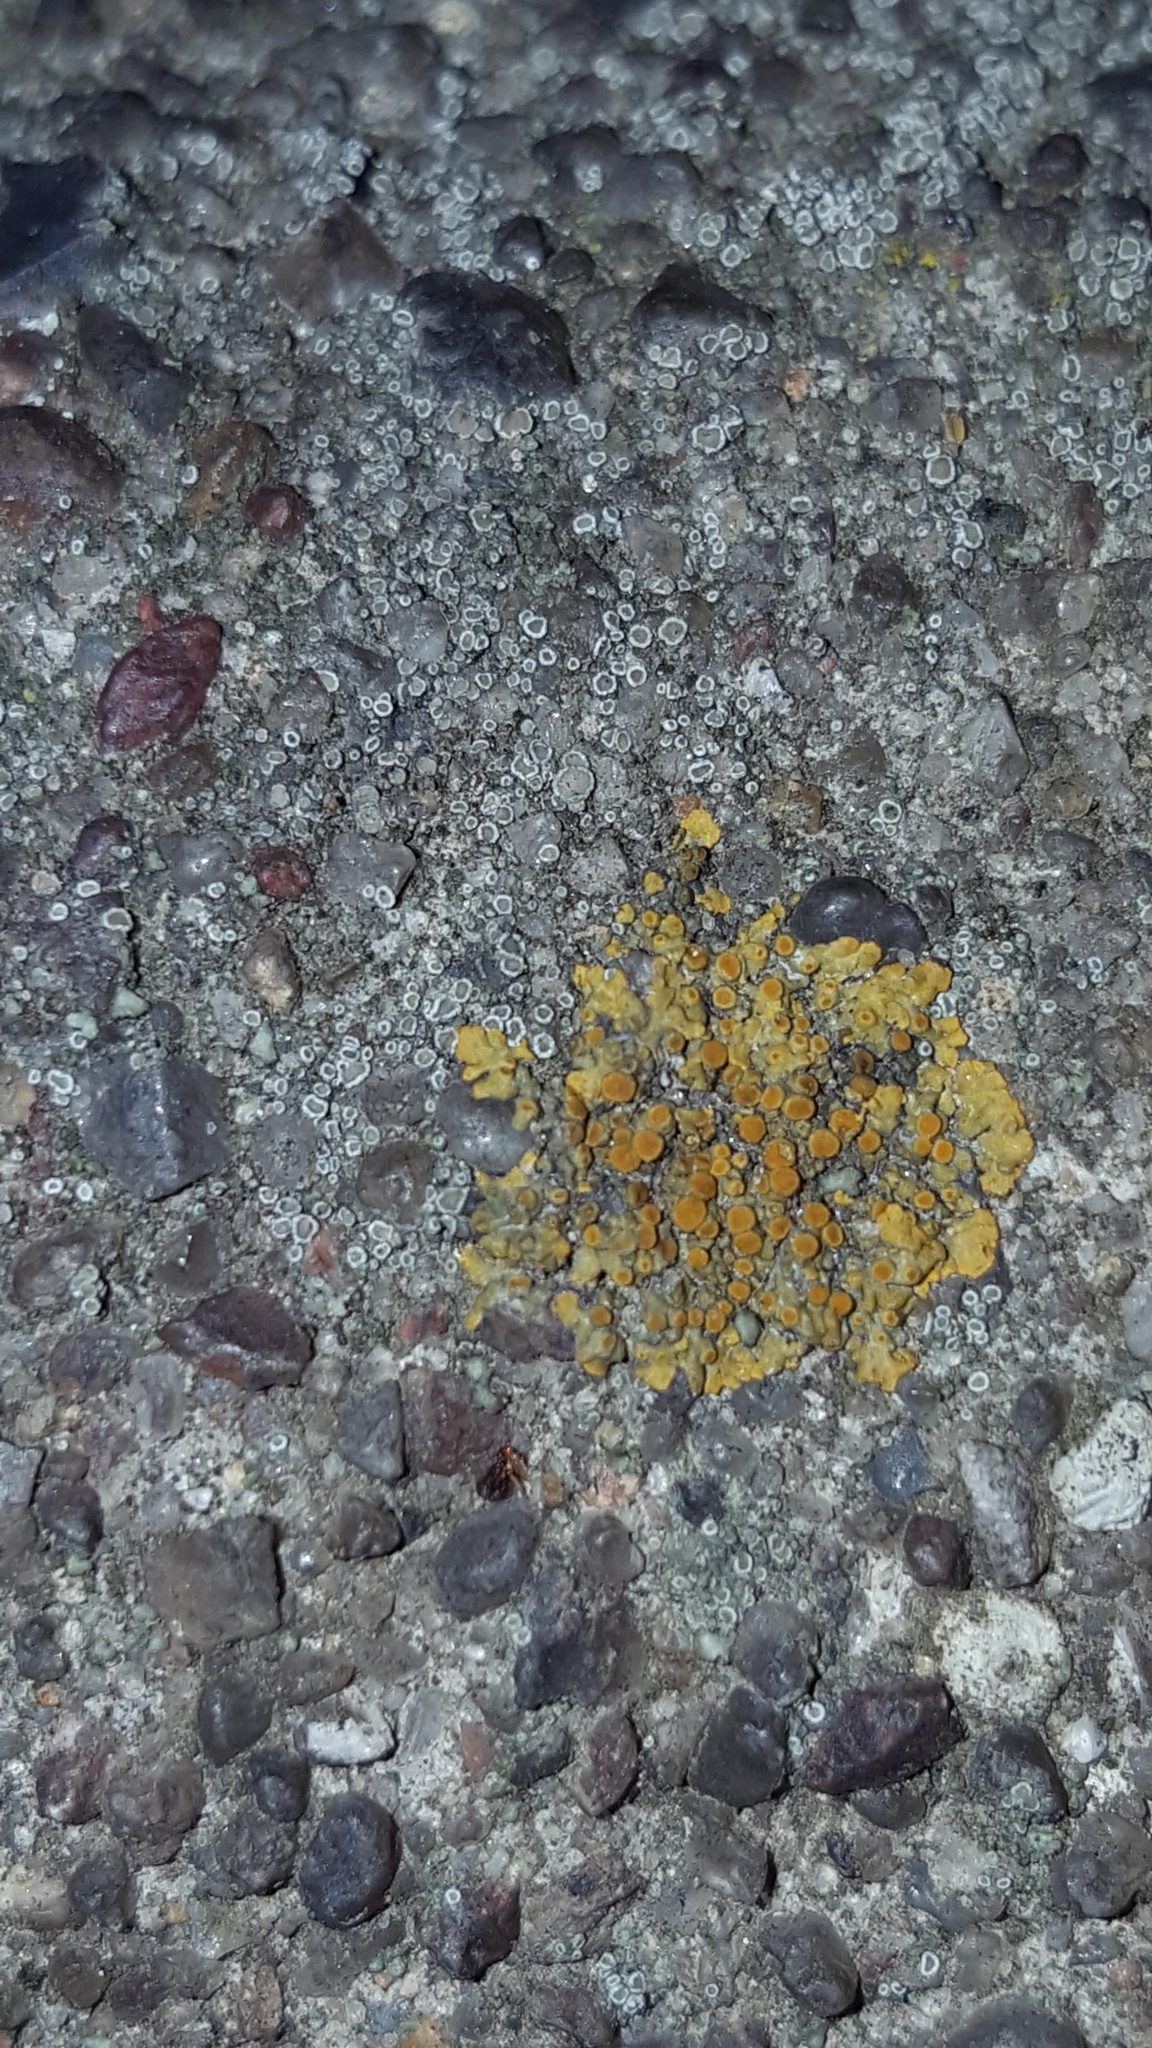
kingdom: Fungi
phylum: Ascomycota
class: Lecanoromycetes
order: Teloschistales
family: Teloschistaceae
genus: Xanthoria
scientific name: Xanthoria parietina
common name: Common orange lichen
